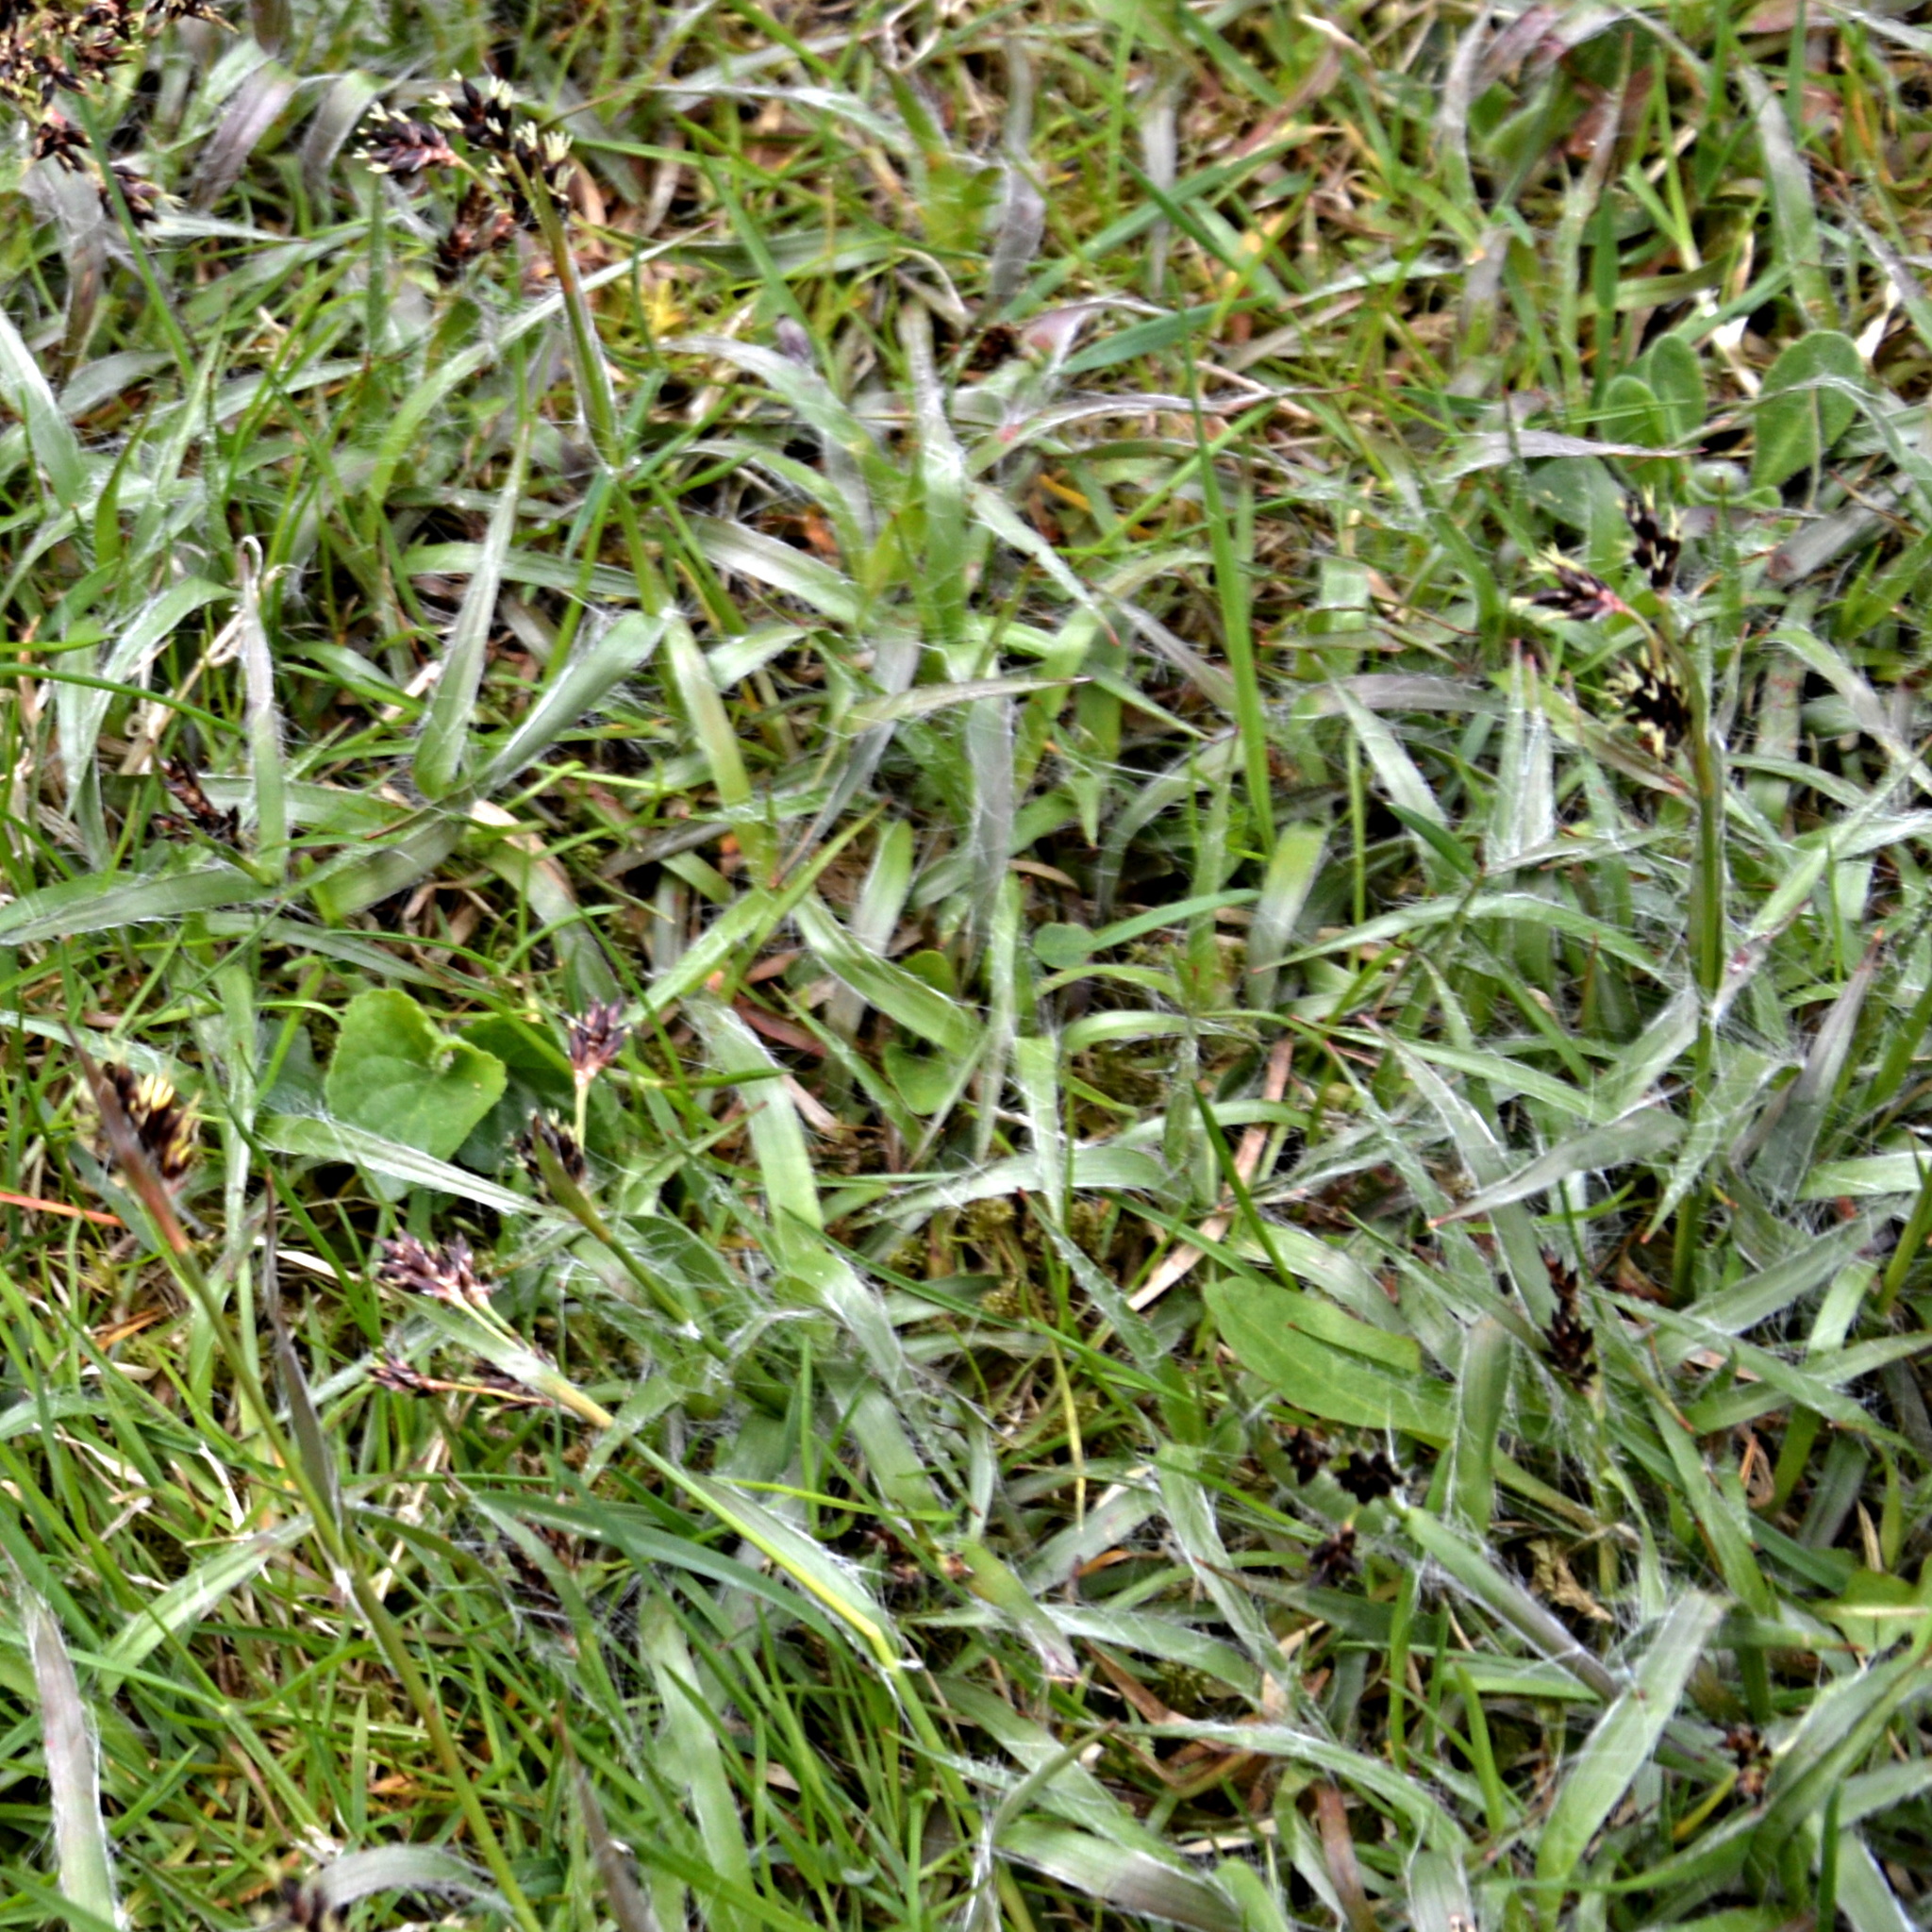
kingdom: Plantae
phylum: Tracheophyta
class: Liliopsida
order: Poales
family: Juncaceae
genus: Luzula
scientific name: Luzula campestris
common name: Field wood-rush
